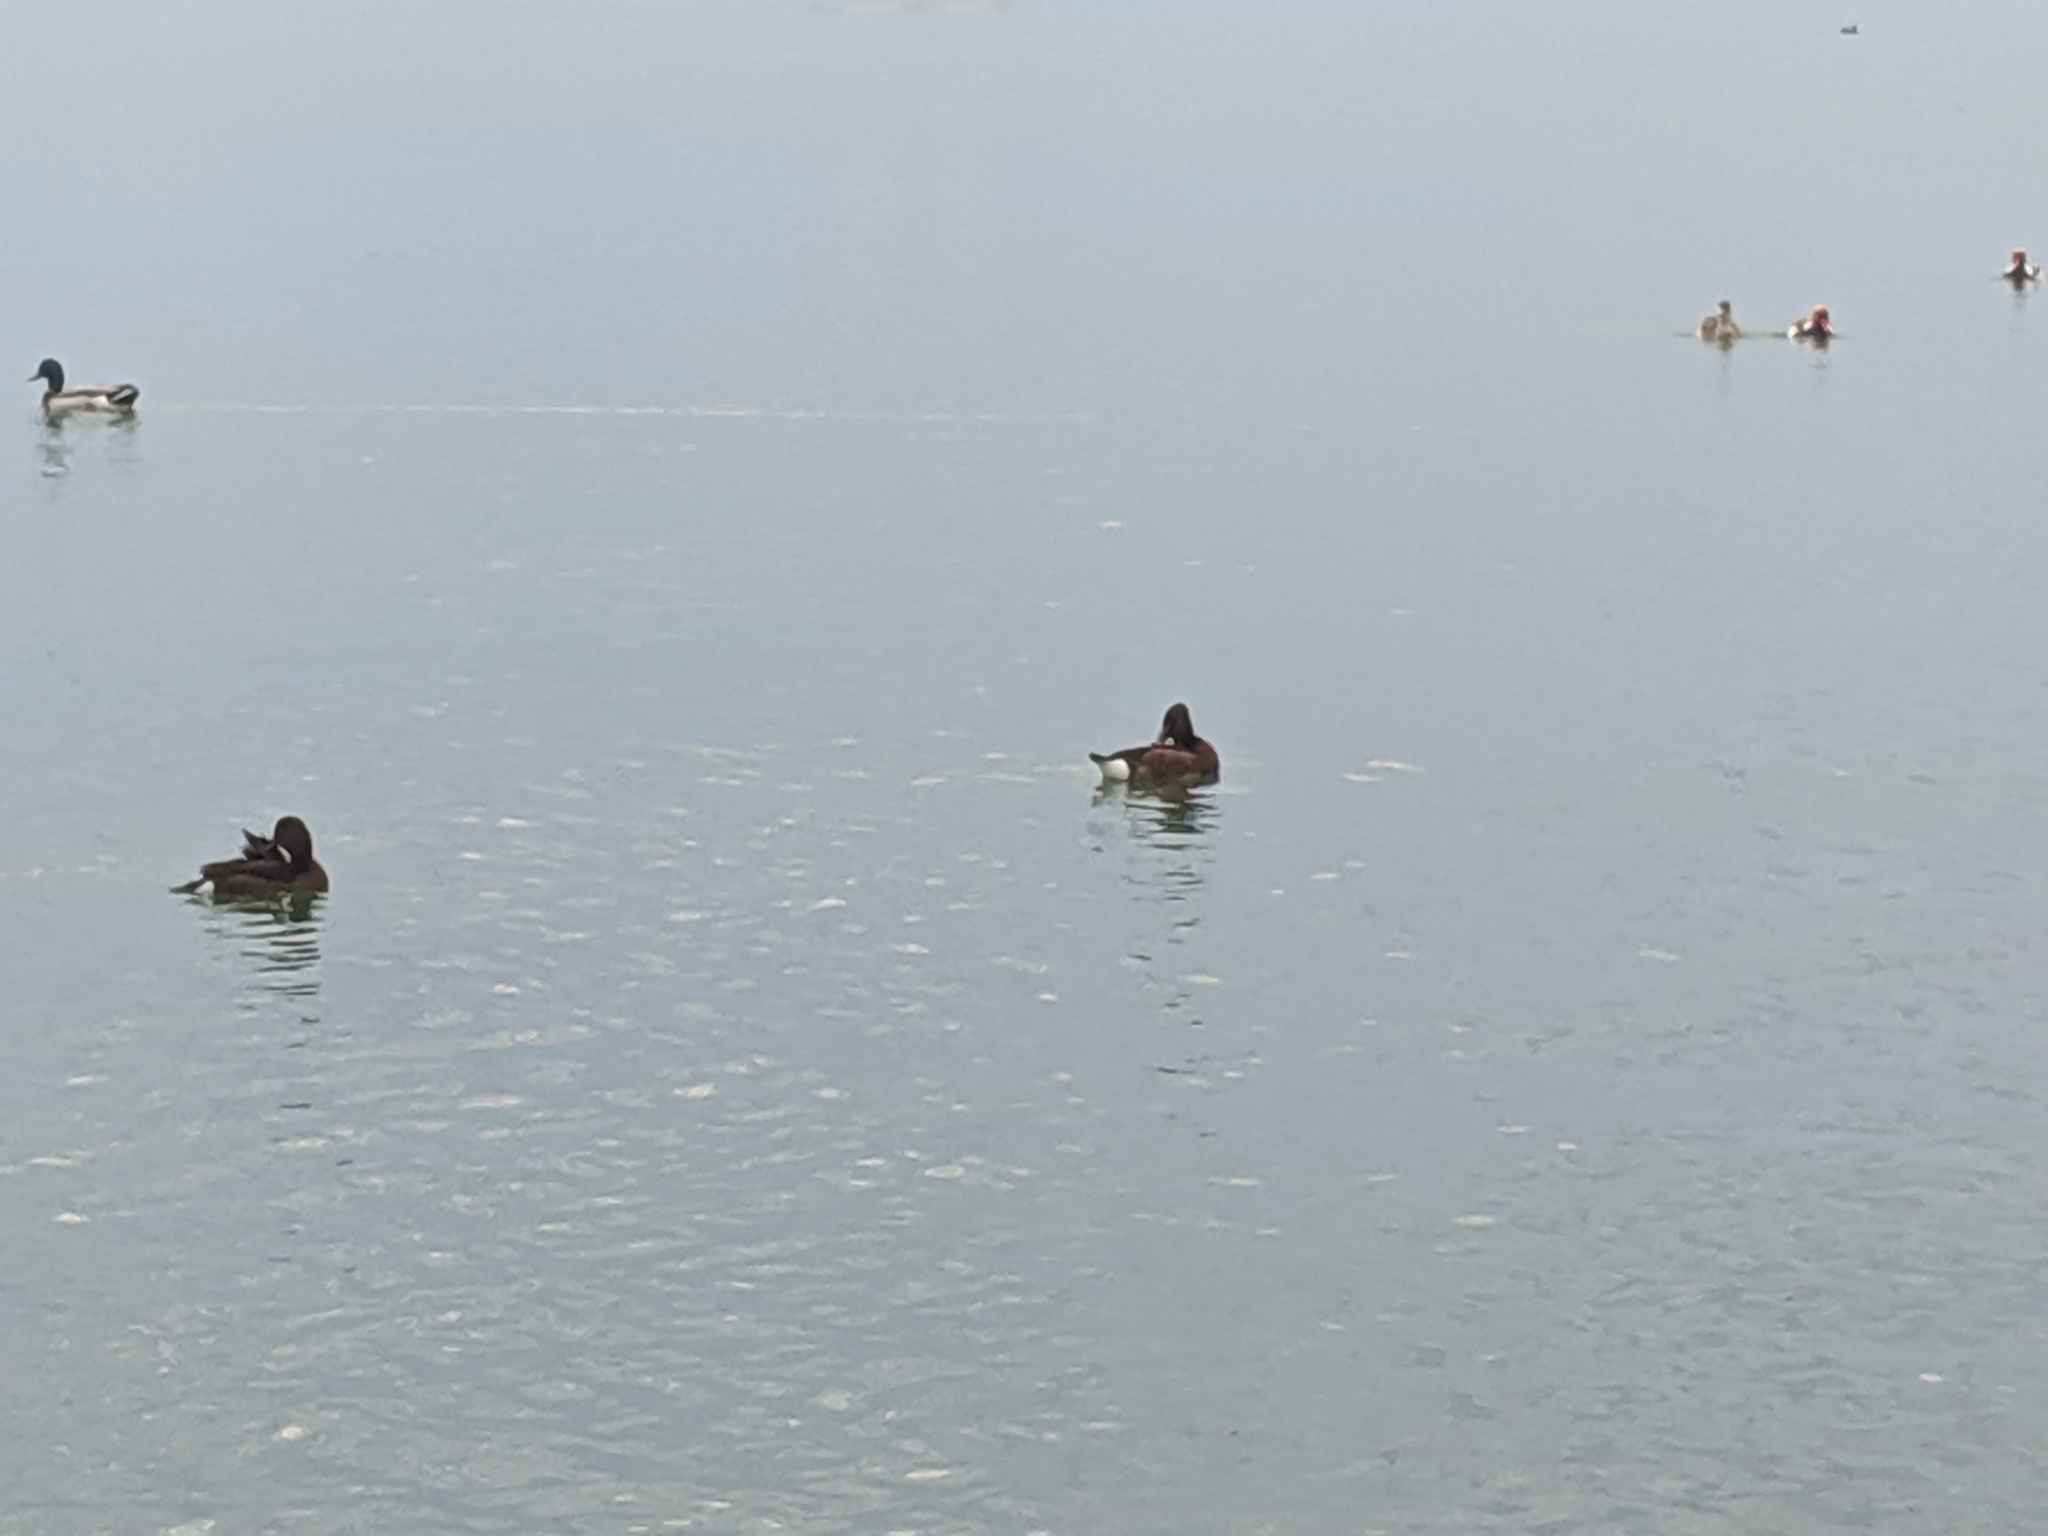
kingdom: Animalia
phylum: Chordata
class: Aves
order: Anseriformes
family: Anatidae
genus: Aythya
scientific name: Aythya nyroca
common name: Ferruginous duck
